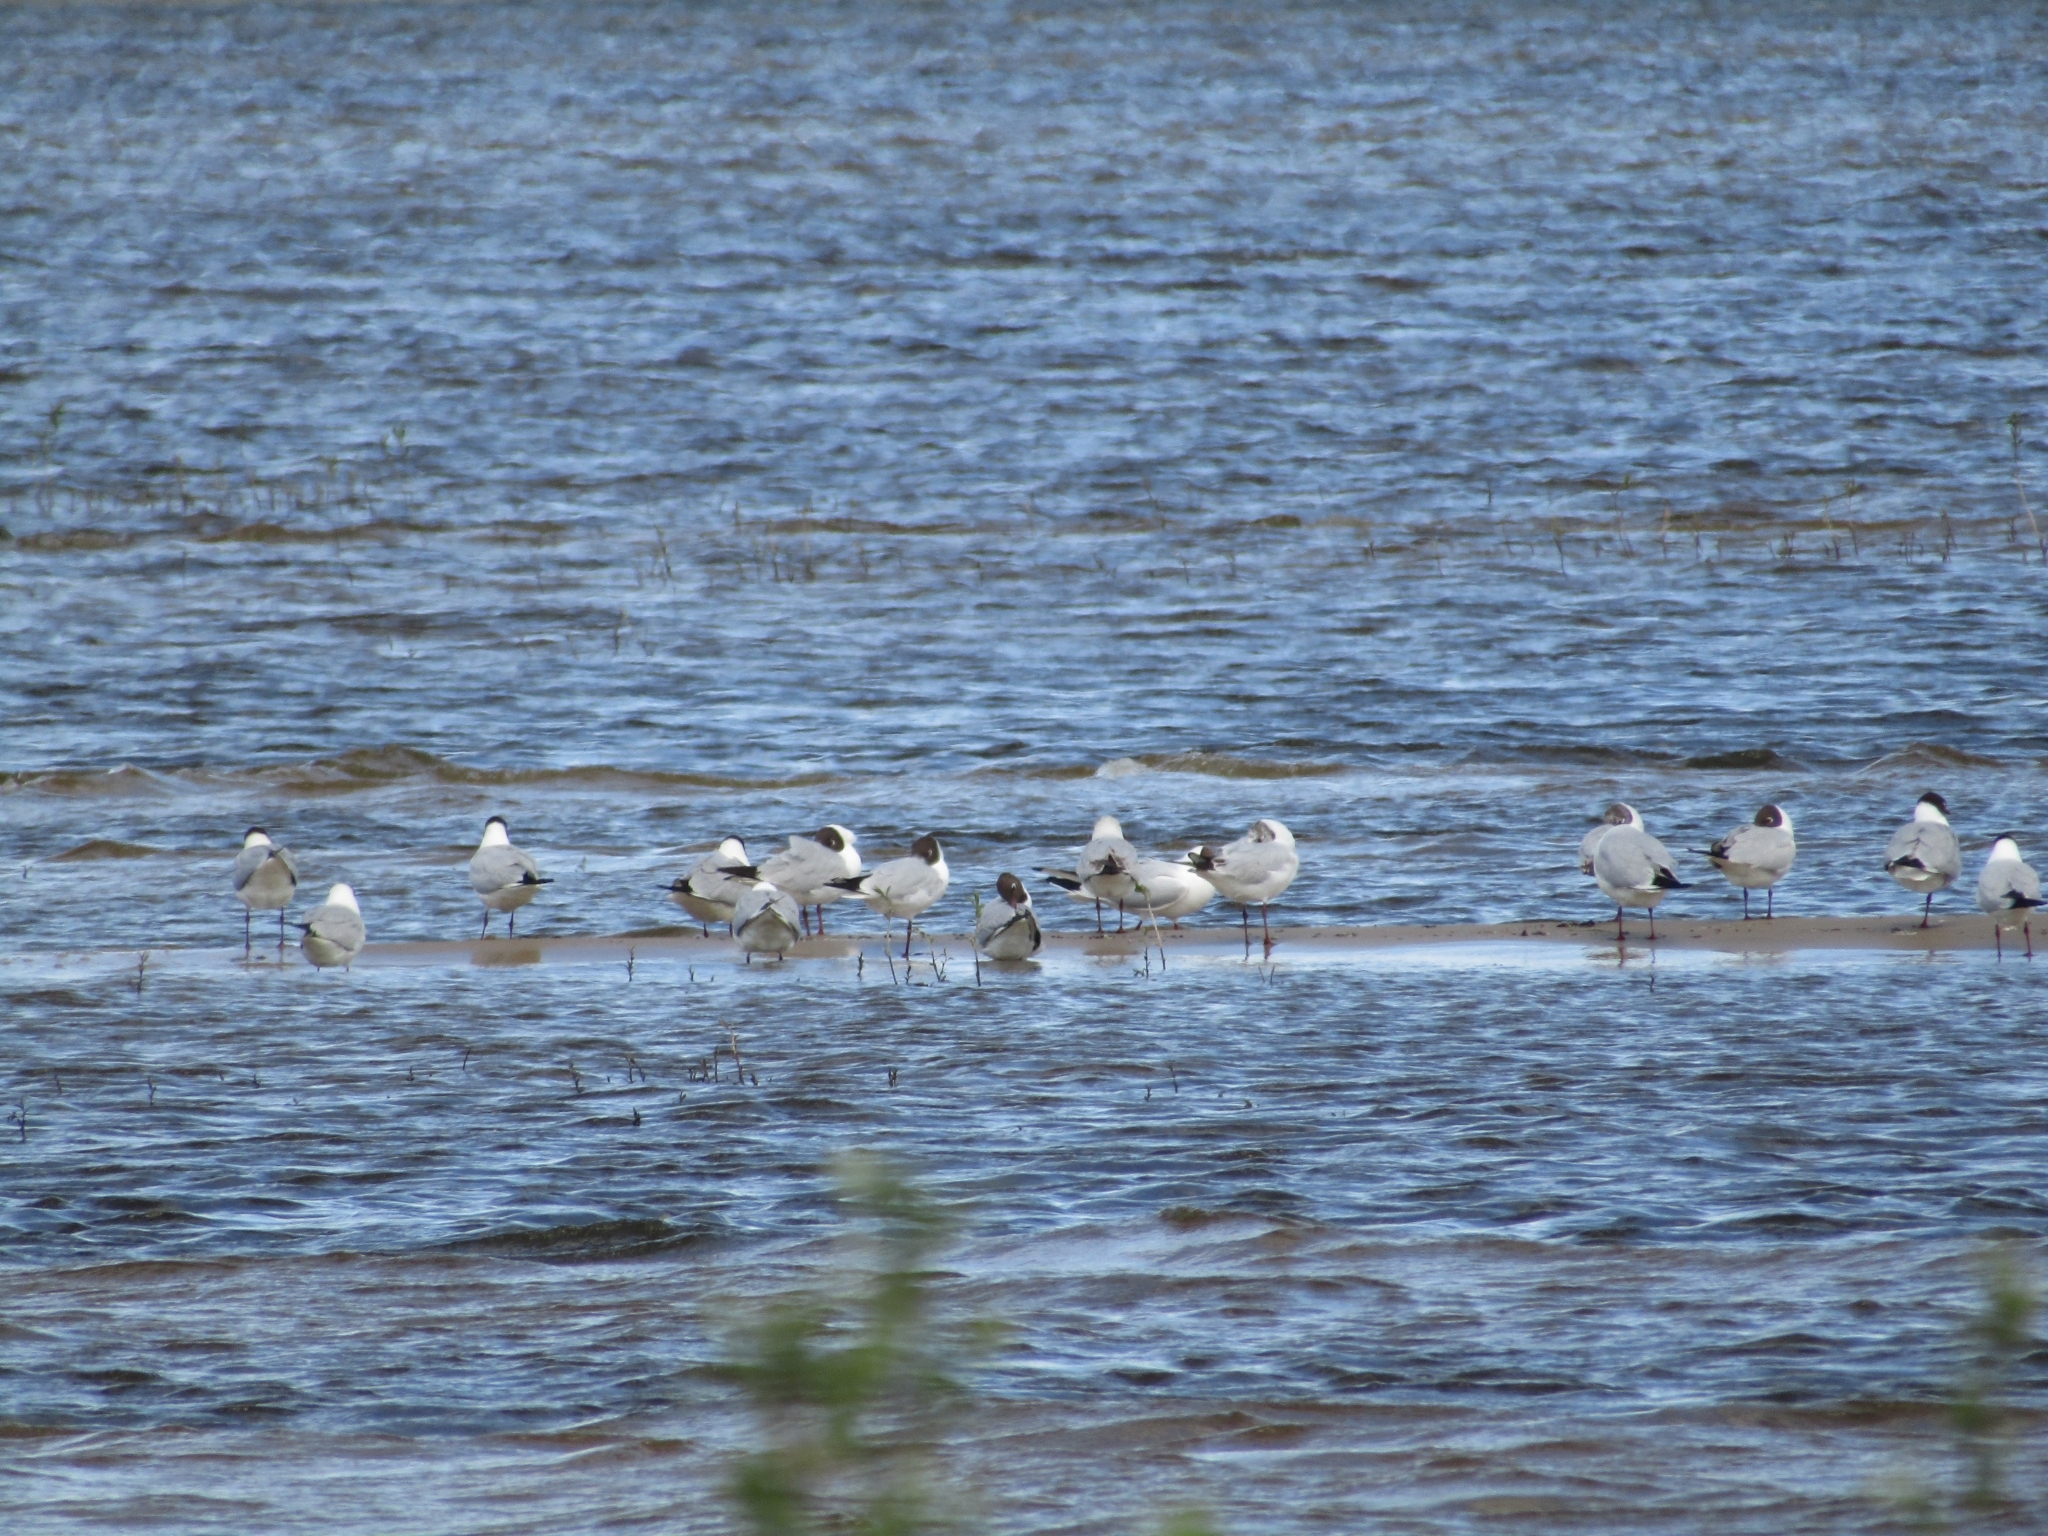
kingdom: Animalia
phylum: Chordata
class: Aves
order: Charadriiformes
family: Laridae
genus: Chroicocephalus
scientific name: Chroicocephalus ridibundus
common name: Black-headed gull
